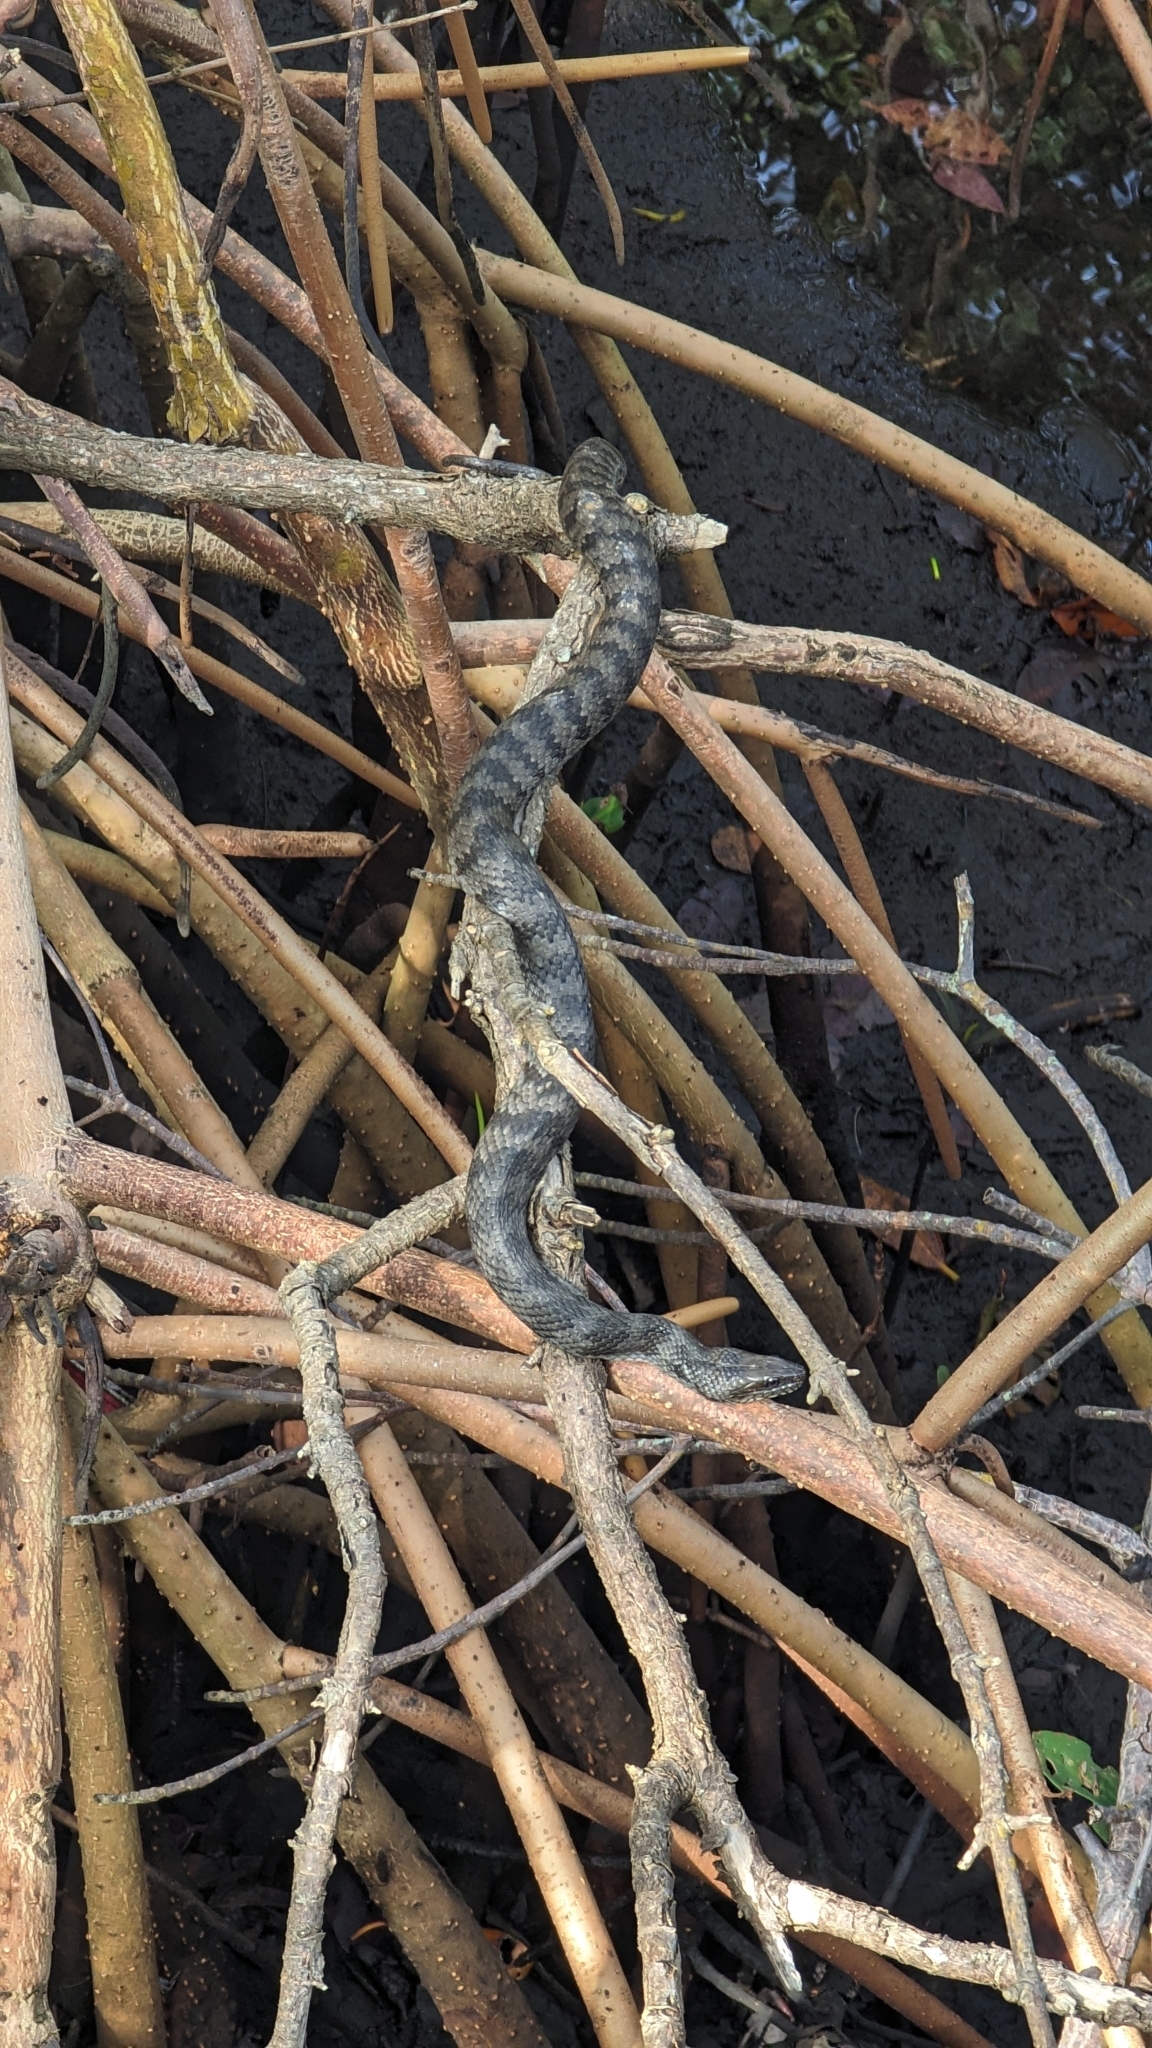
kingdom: Animalia
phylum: Chordata
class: Squamata
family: Colubridae
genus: Nerodia
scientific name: Nerodia clarkii
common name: Atlantic saltmarsh snake
